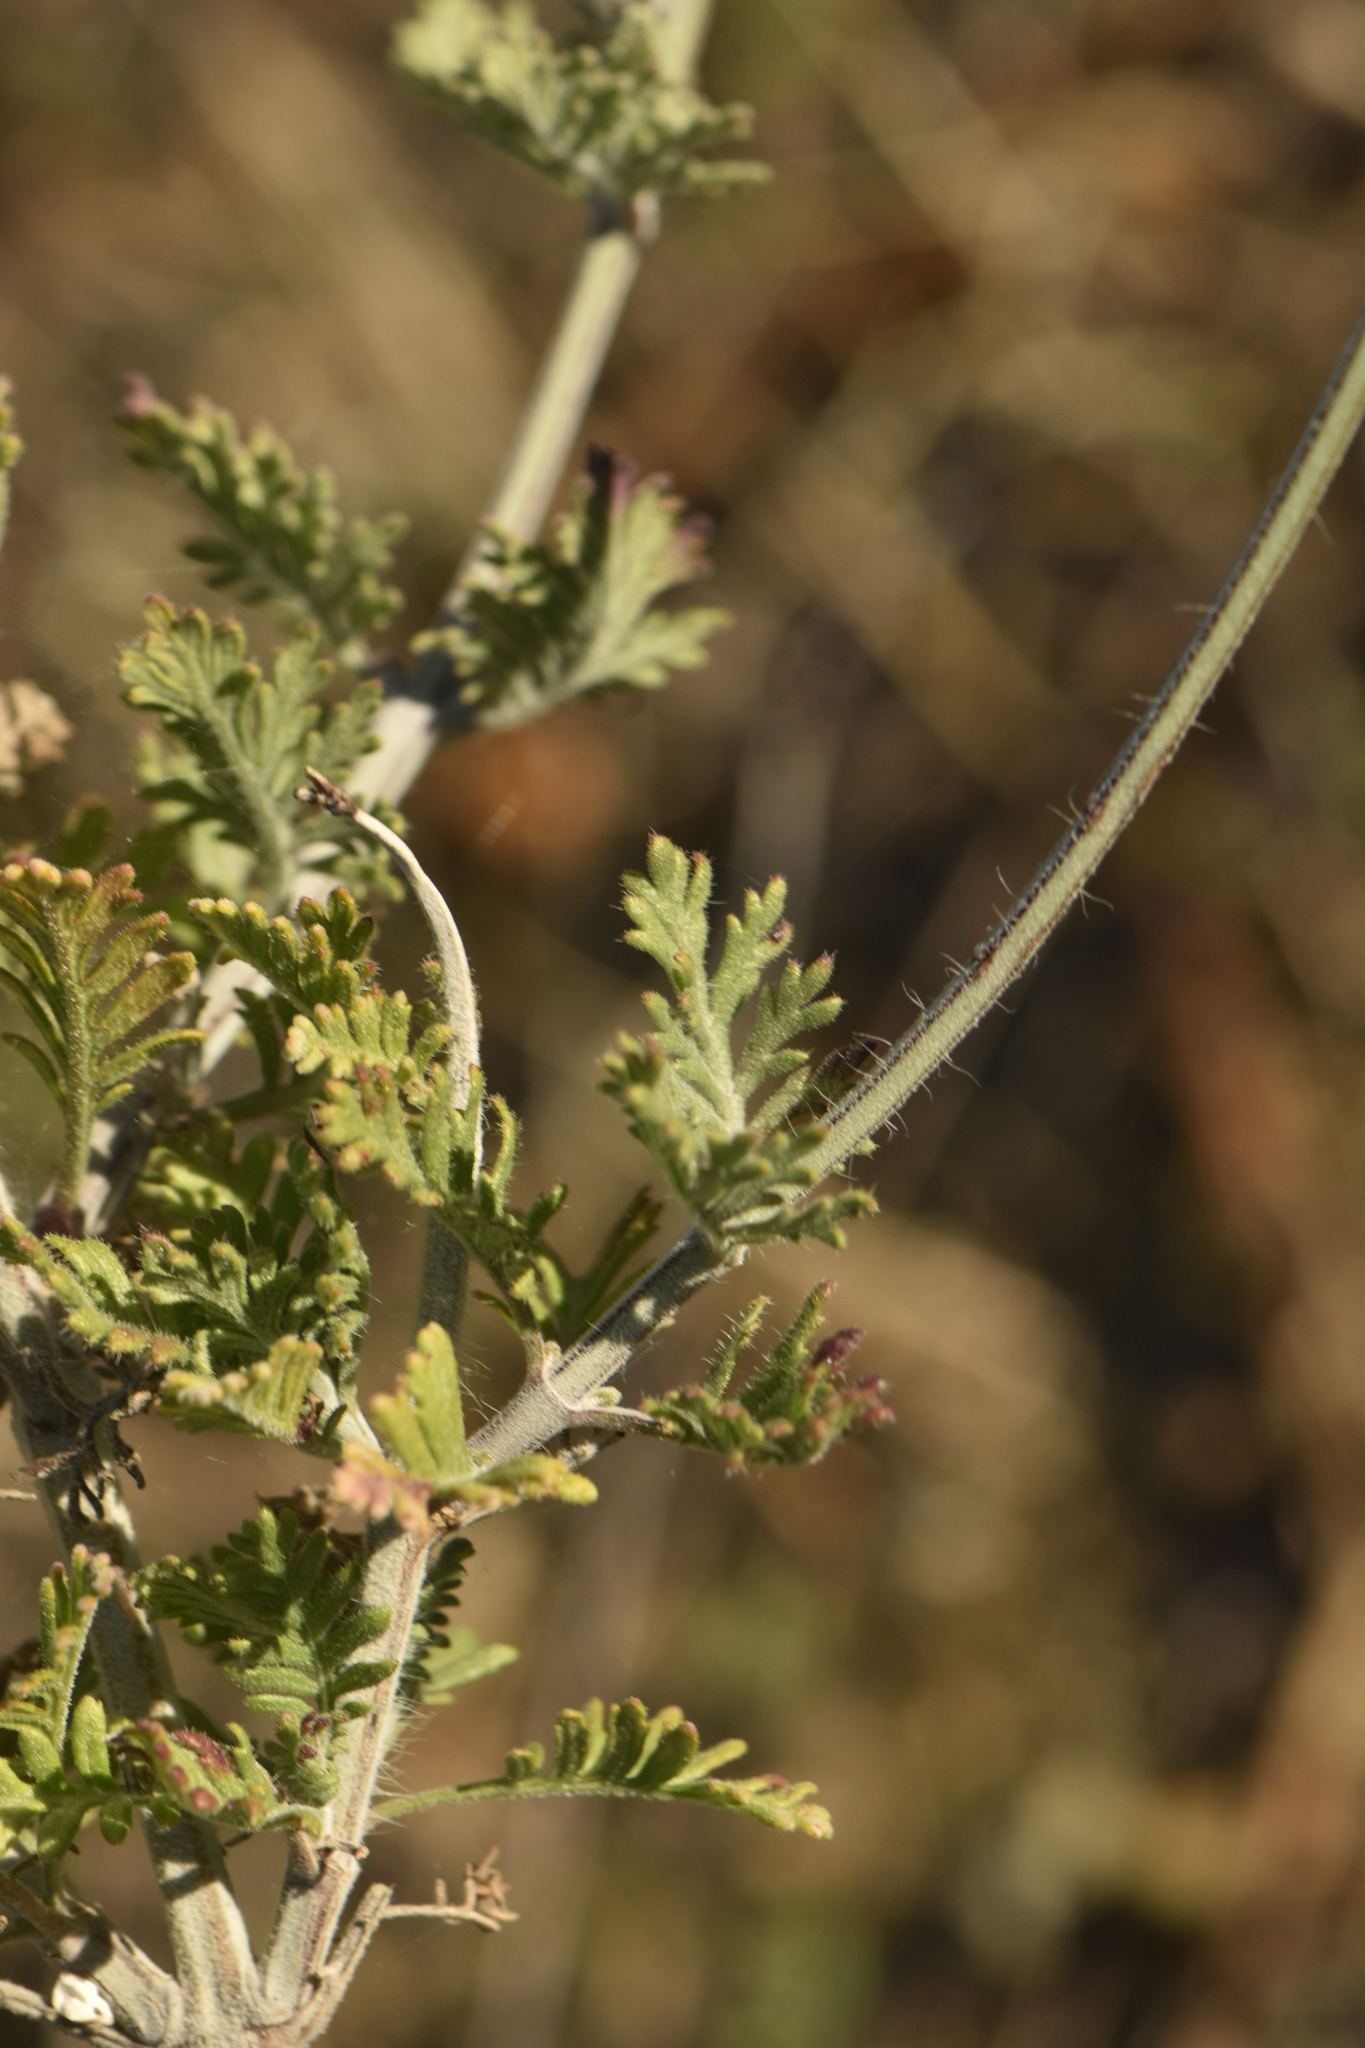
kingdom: Plantae
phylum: Tracheophyta
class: Magnoliopsida
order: Lamiales
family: Lamiaceae
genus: Lavandula
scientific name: Lavandula multifida
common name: Fern-leaf lavender
